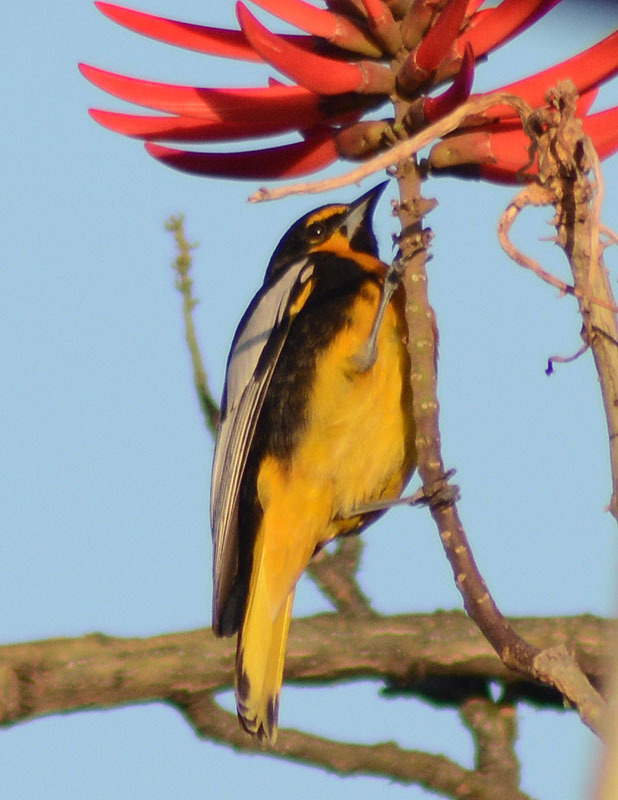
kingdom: Animalia
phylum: Chordata
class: Aves
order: Passeriformes
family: Icteridae
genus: Icterus
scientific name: Icterus abeillei
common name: Black-backed oriole
